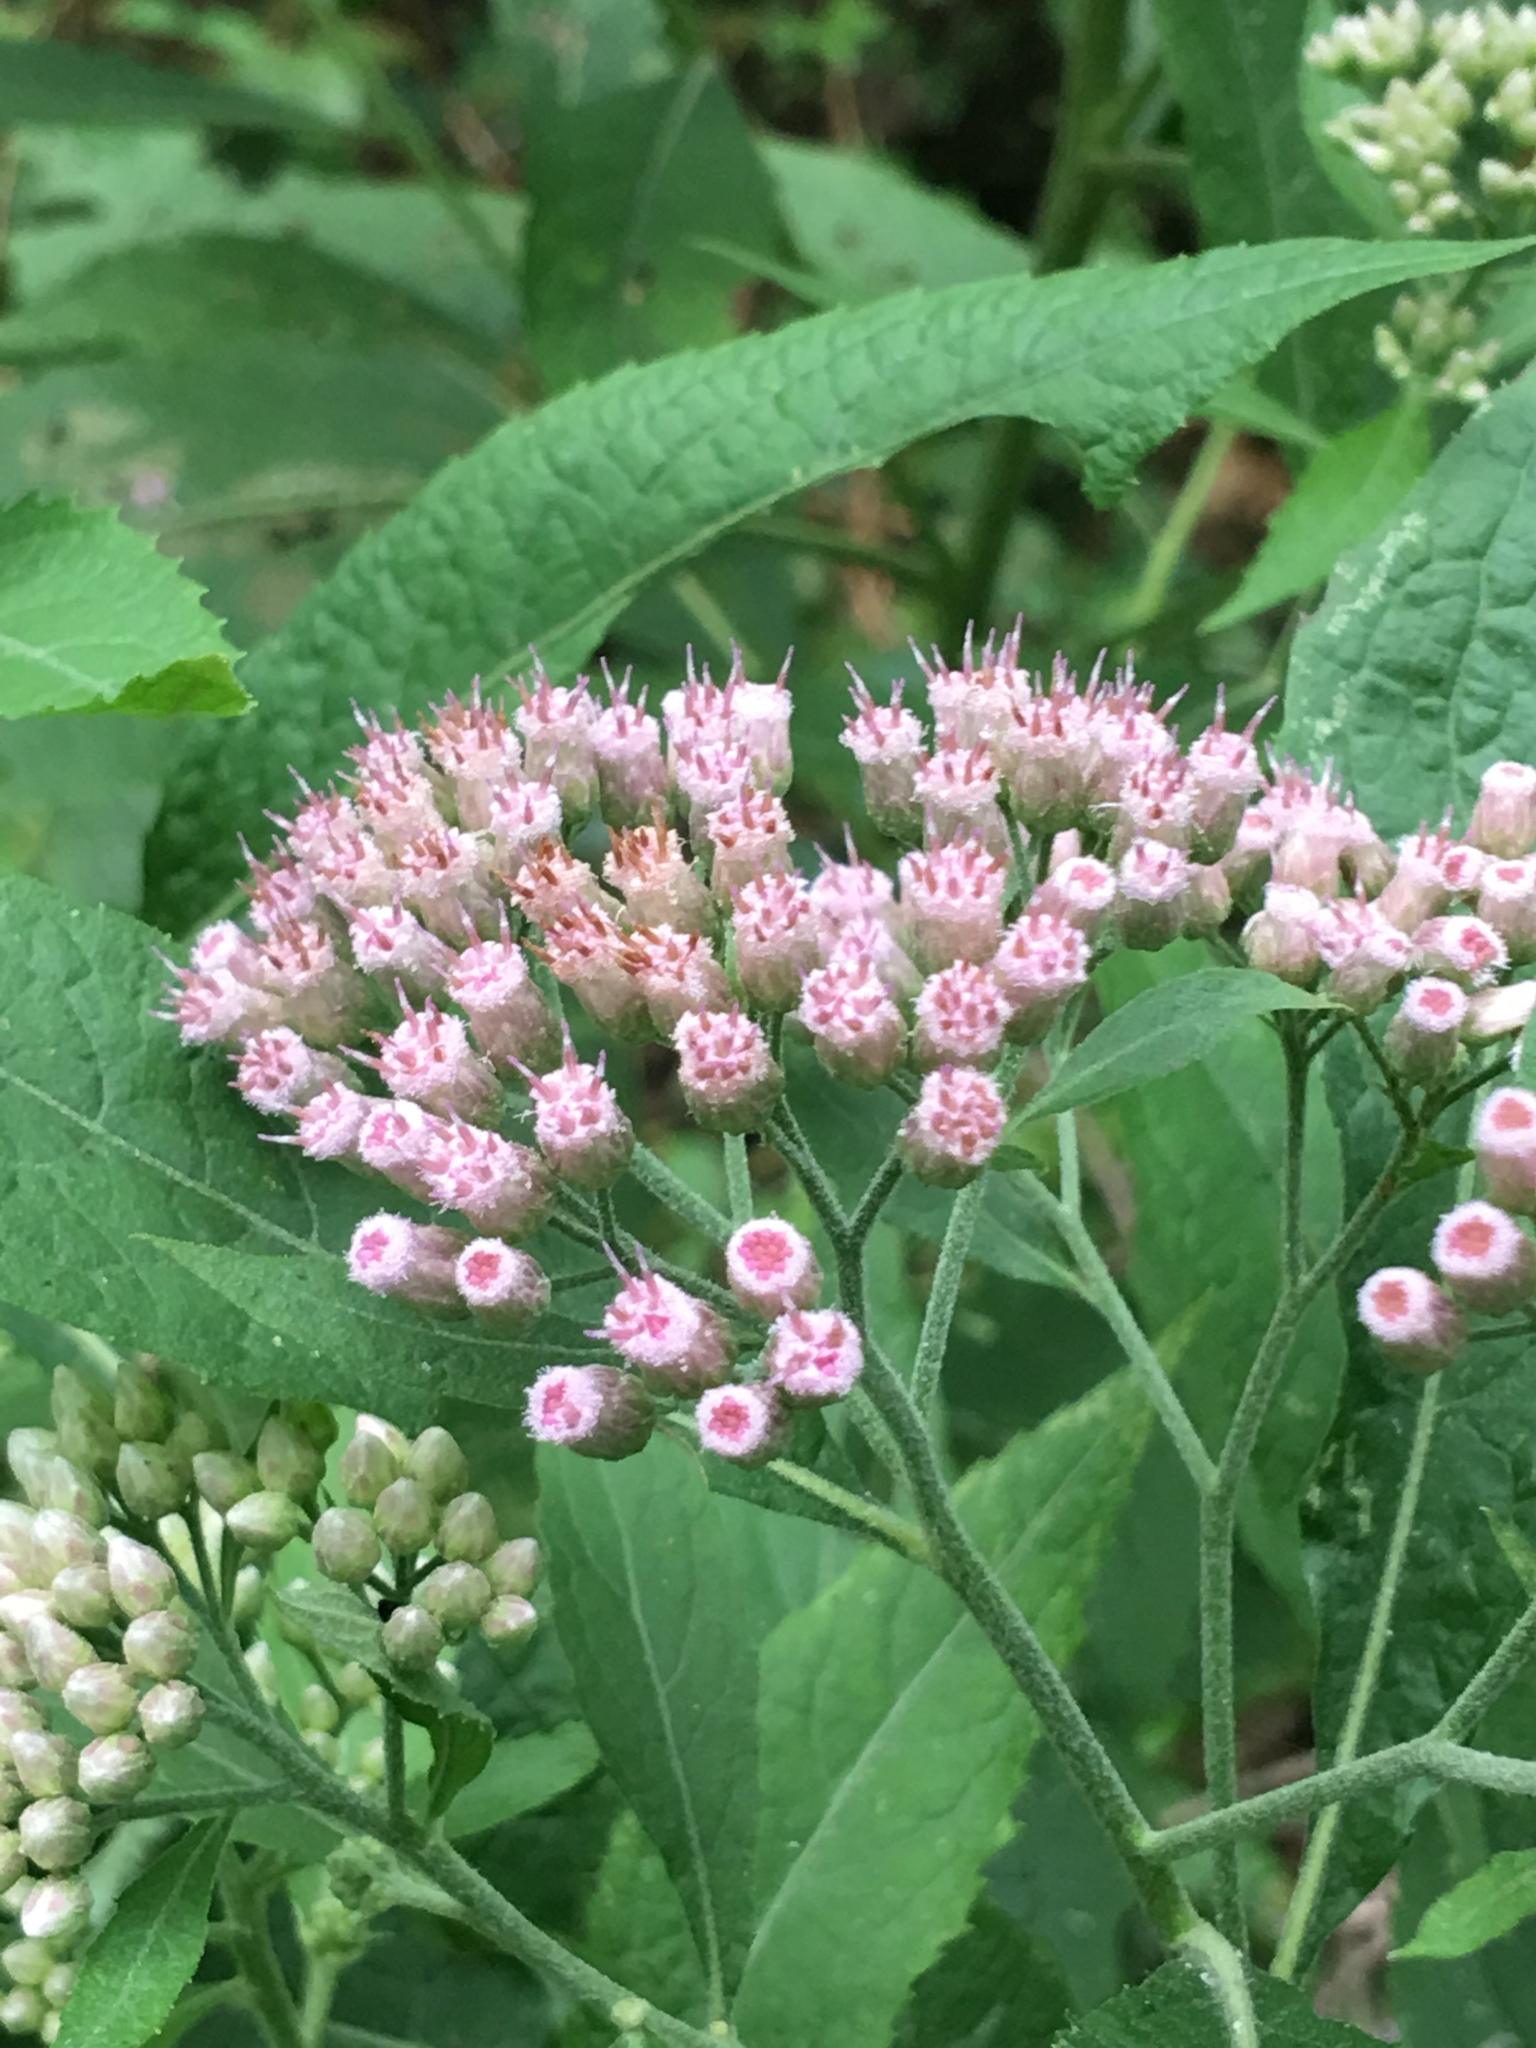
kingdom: Plantae
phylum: Tracheophyta
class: Magnoliopsida
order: Asterales
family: Asteraceae
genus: Pluchea
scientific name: Pluchea camphorata
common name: Camphor pluchea
